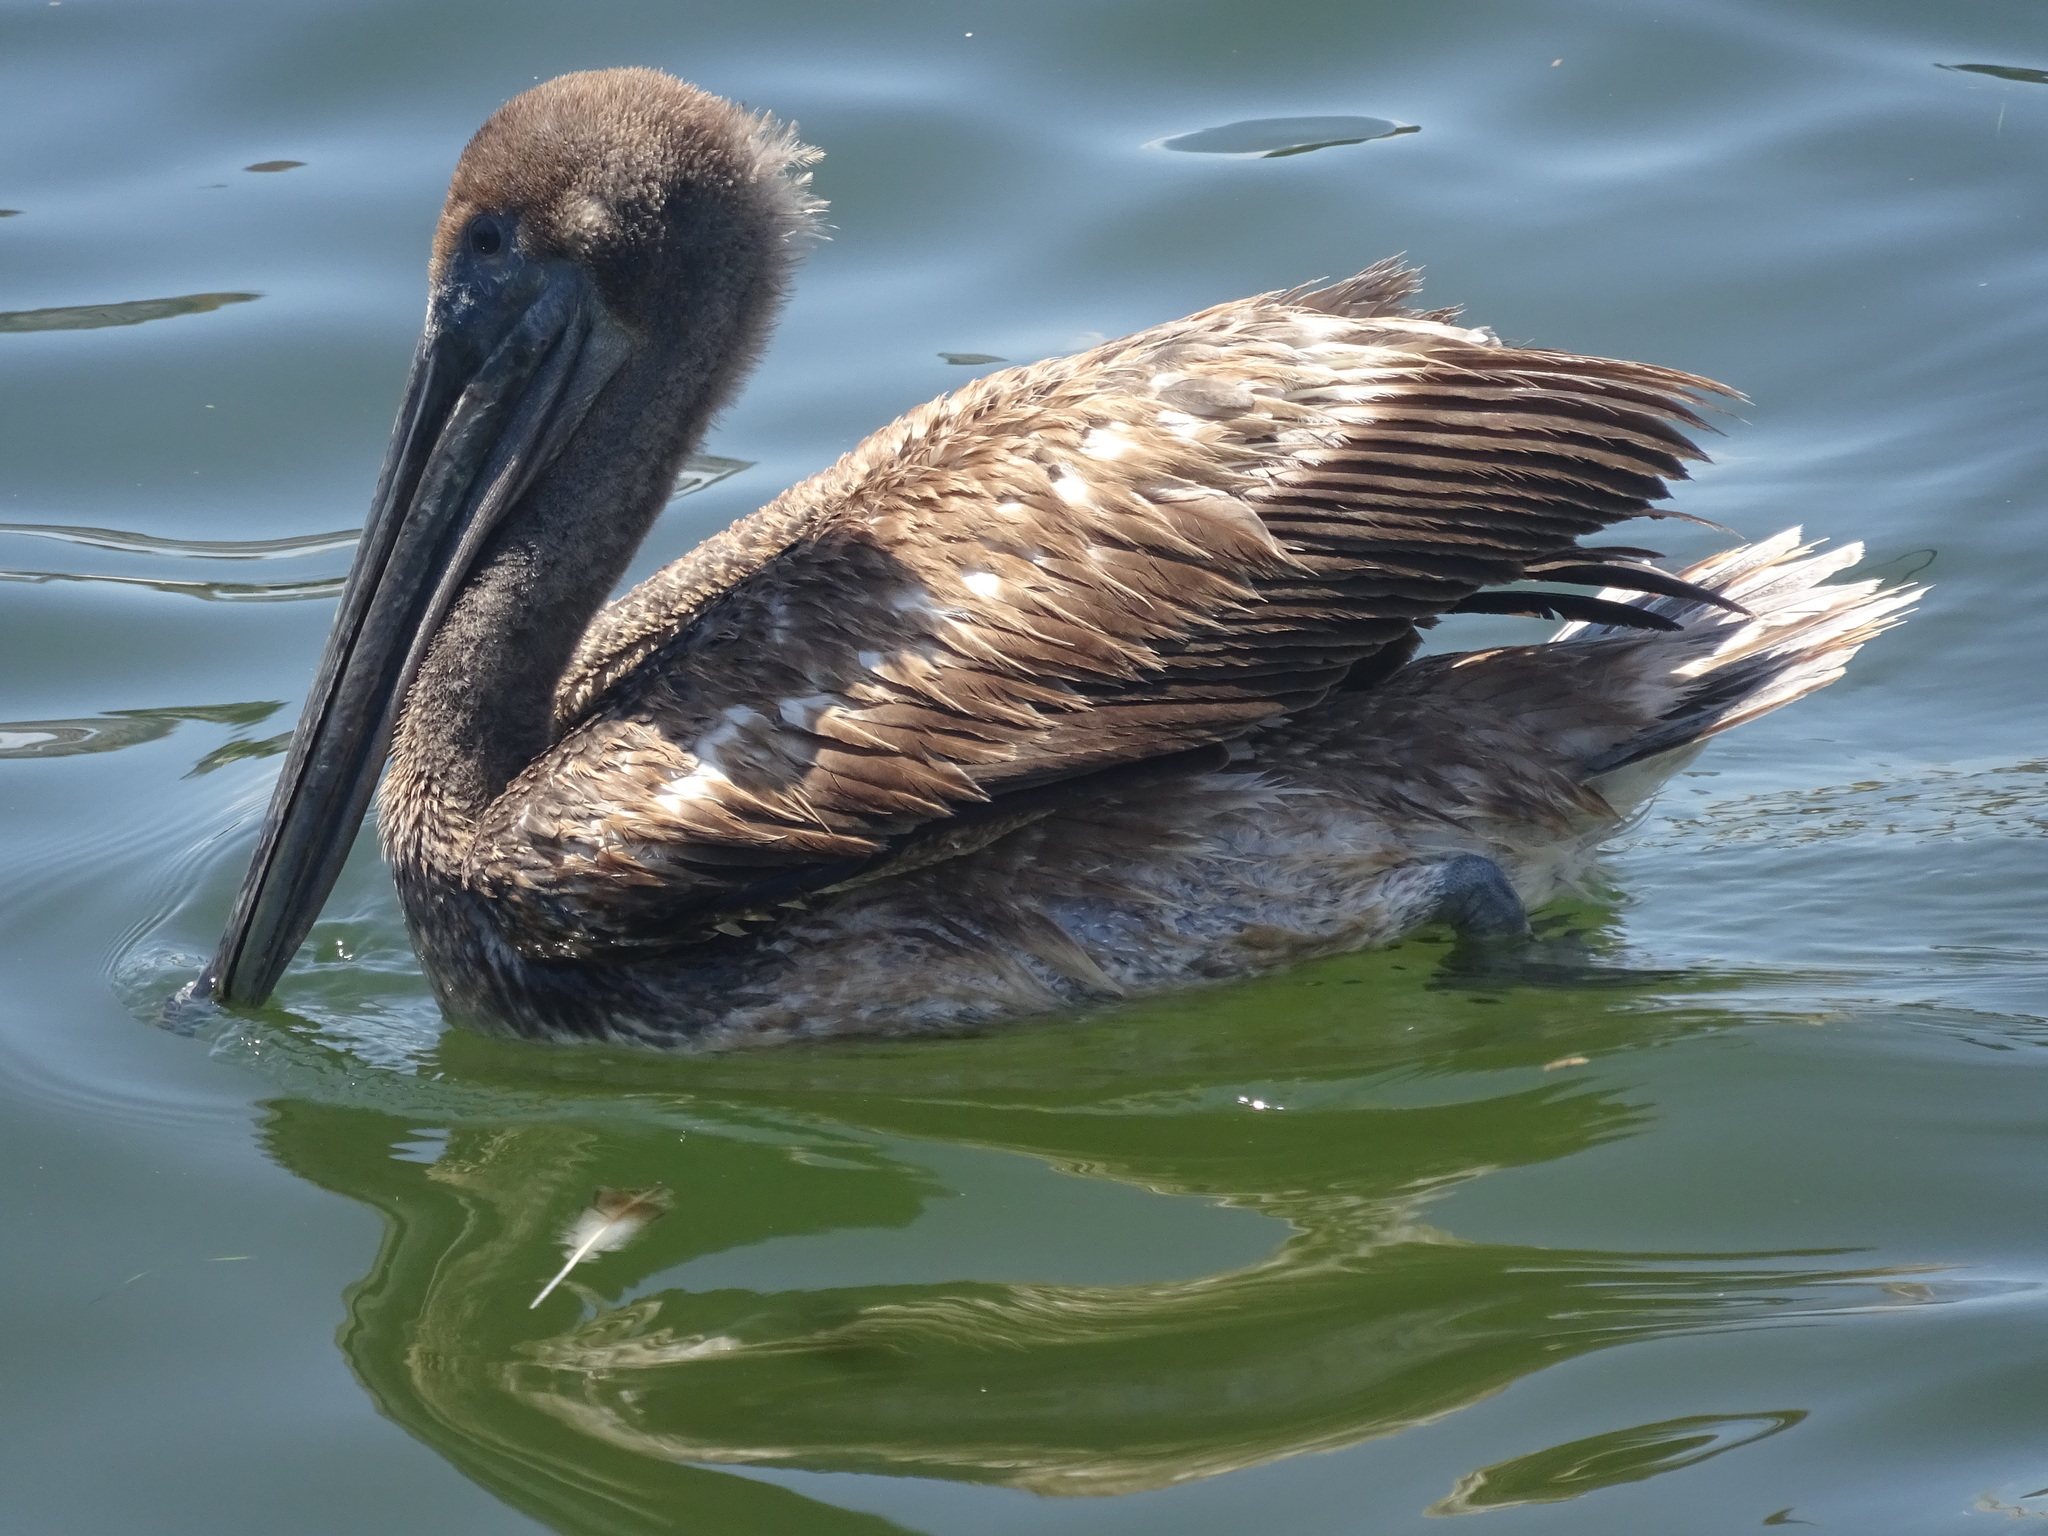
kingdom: Animalia
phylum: Chordata
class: Aves
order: Pelecaniformes
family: Pelecanidae
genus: Pelecanus
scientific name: Pelecanus occidentalis
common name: Brown pelican
